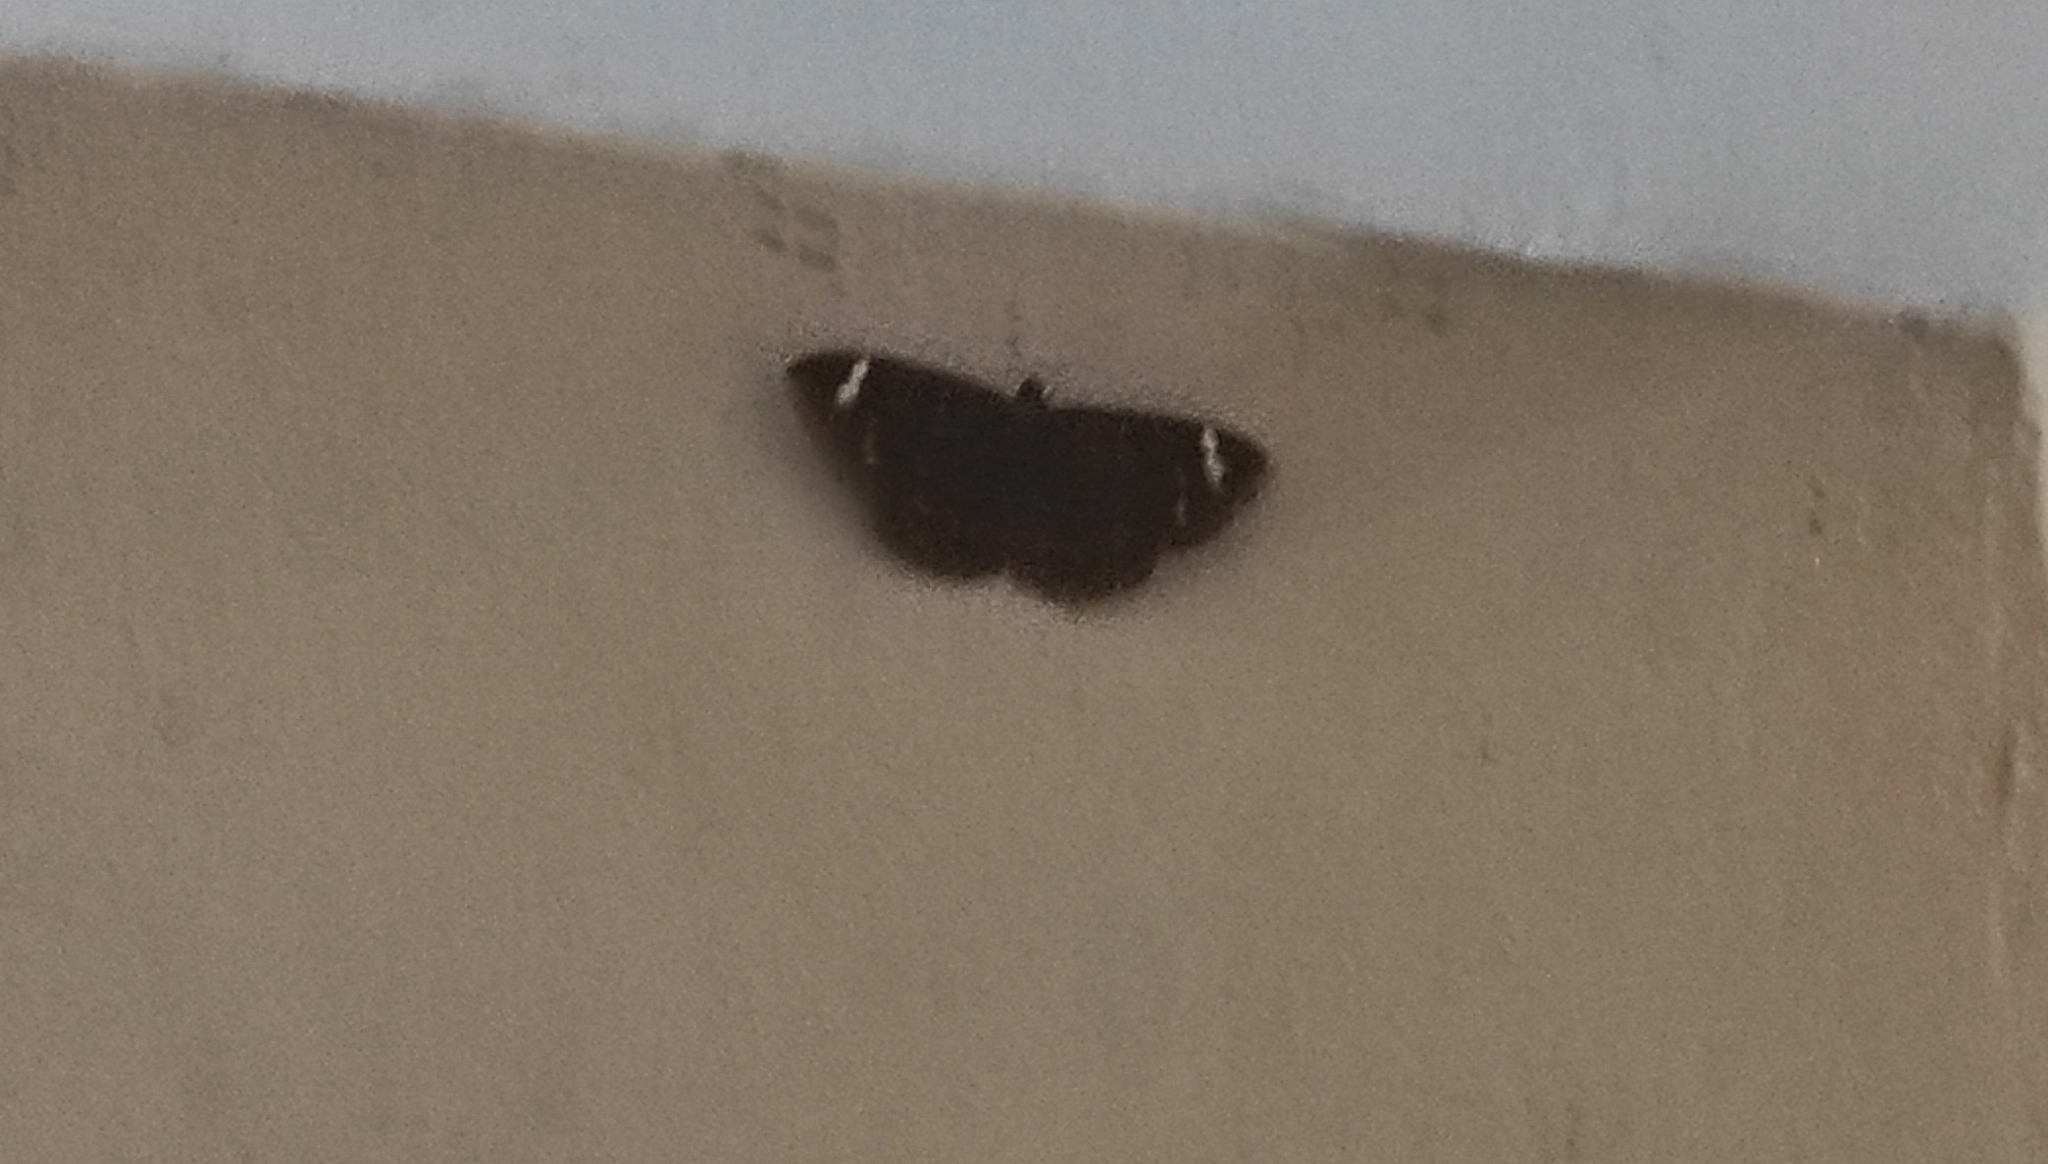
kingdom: Animalia
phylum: Arthropoda
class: Insecta
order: Lepidoptera
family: Erebidae
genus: Erebus
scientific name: Erebus hieroglyphica
